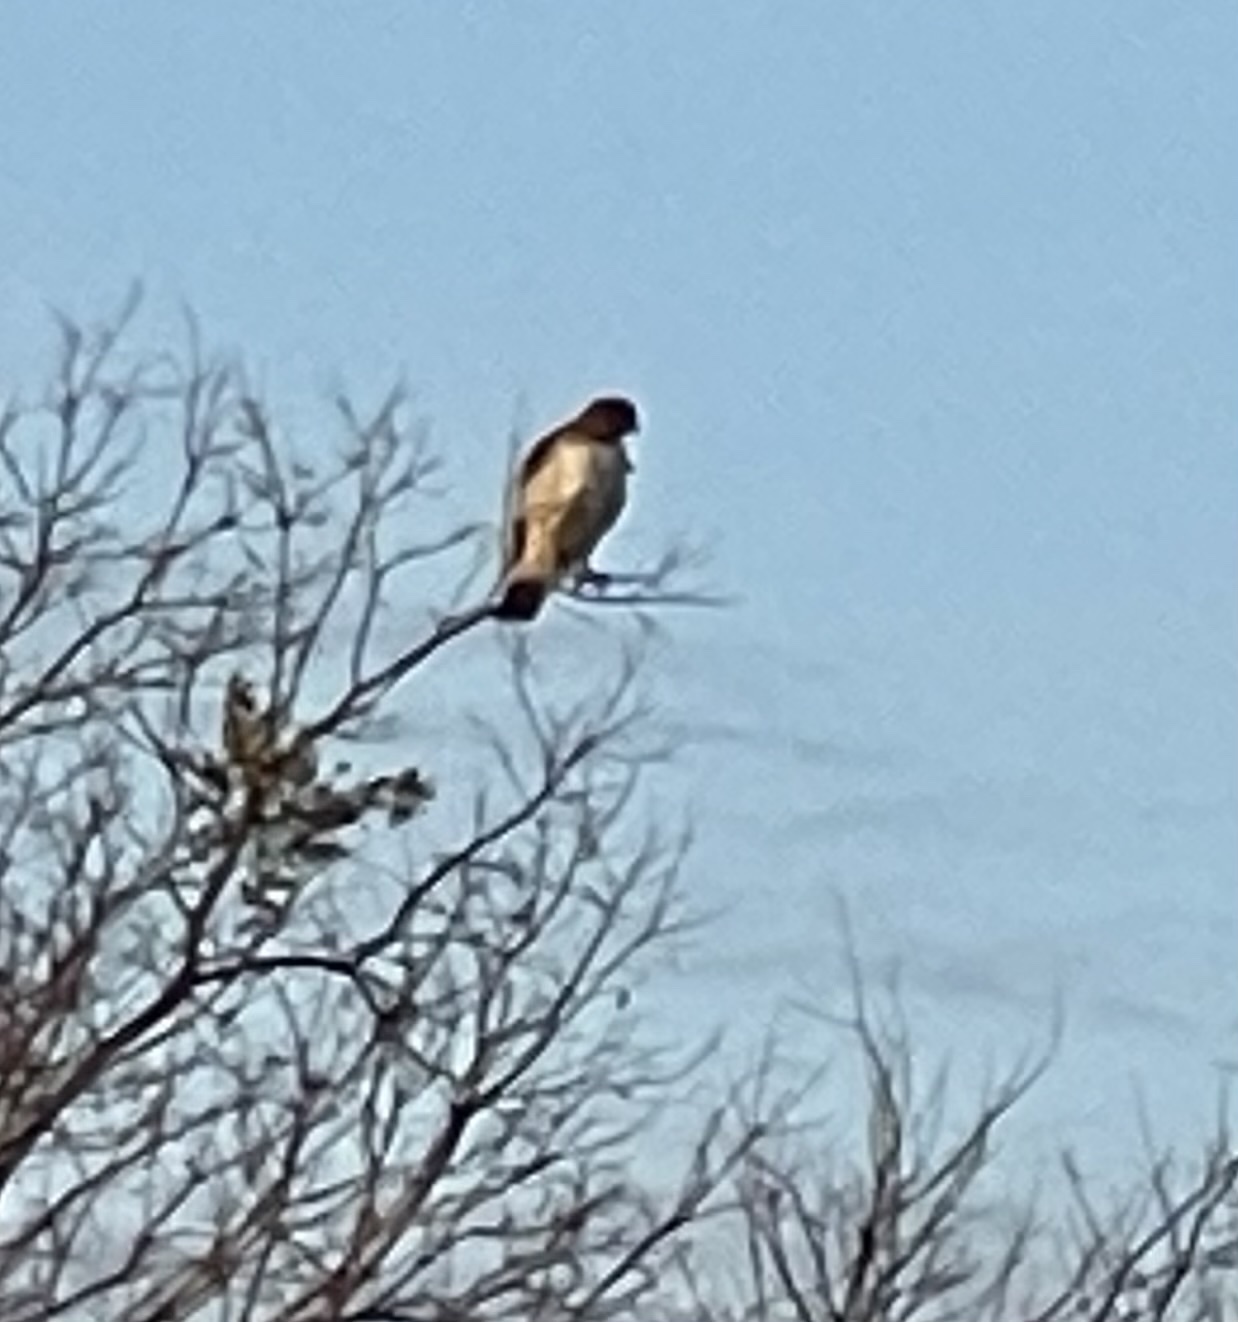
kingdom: Animalia
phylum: Chordata
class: Aves
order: Accipitriformes
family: Accipitridae
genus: Buteo
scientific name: Buteo jamaicensis
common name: Red-tailed hawk
